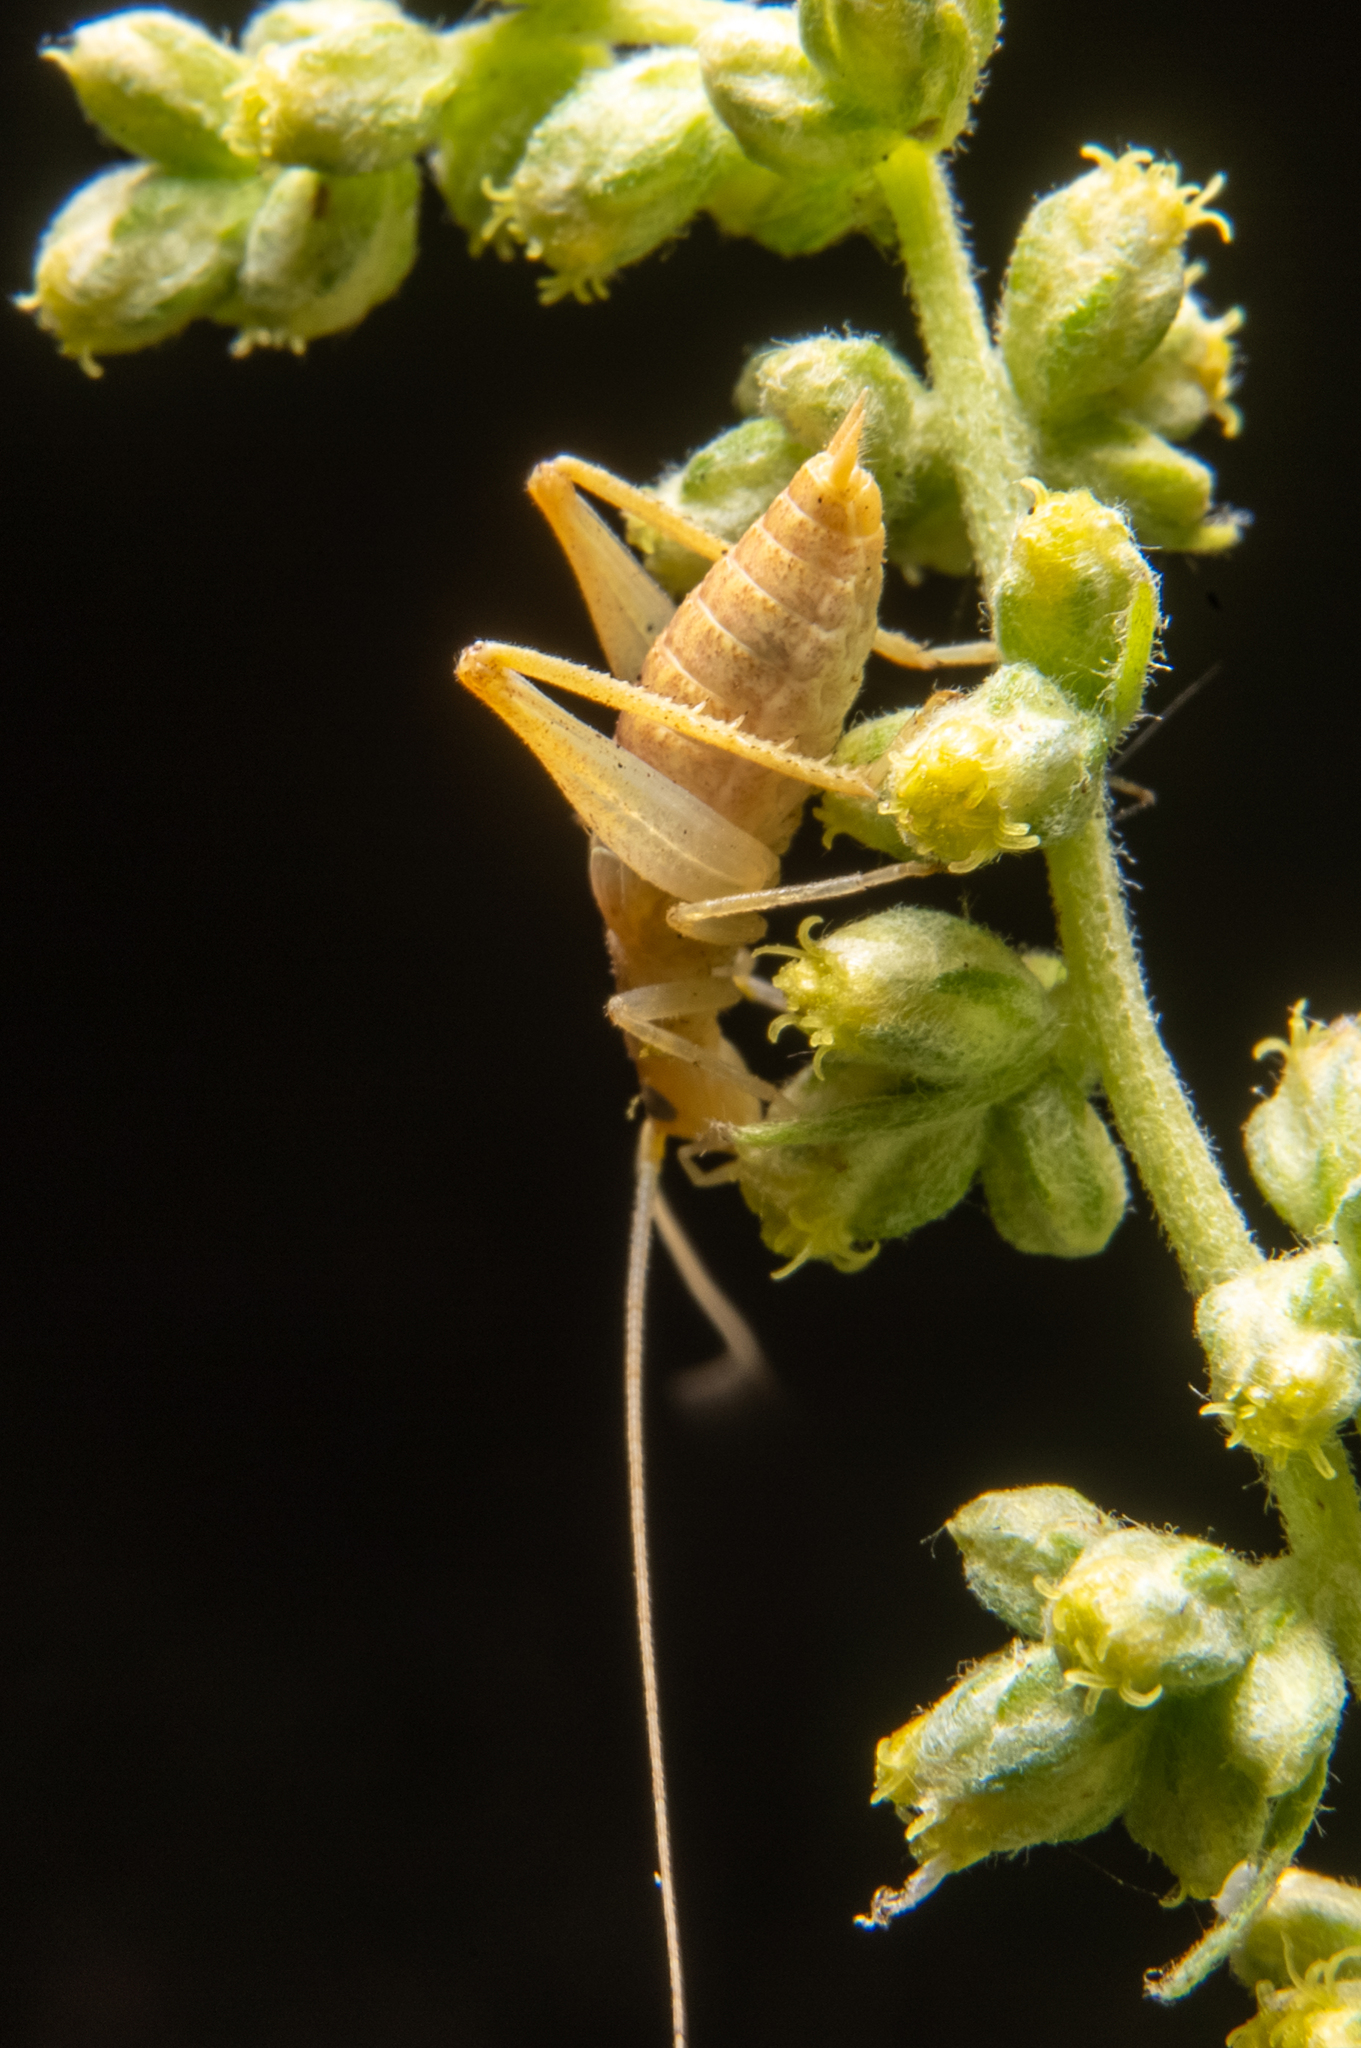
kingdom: Animalia
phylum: Arthropoda
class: Insecta
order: Orthoptera
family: Gryllidae
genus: Oecanthus
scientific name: Oecanthus californicus
